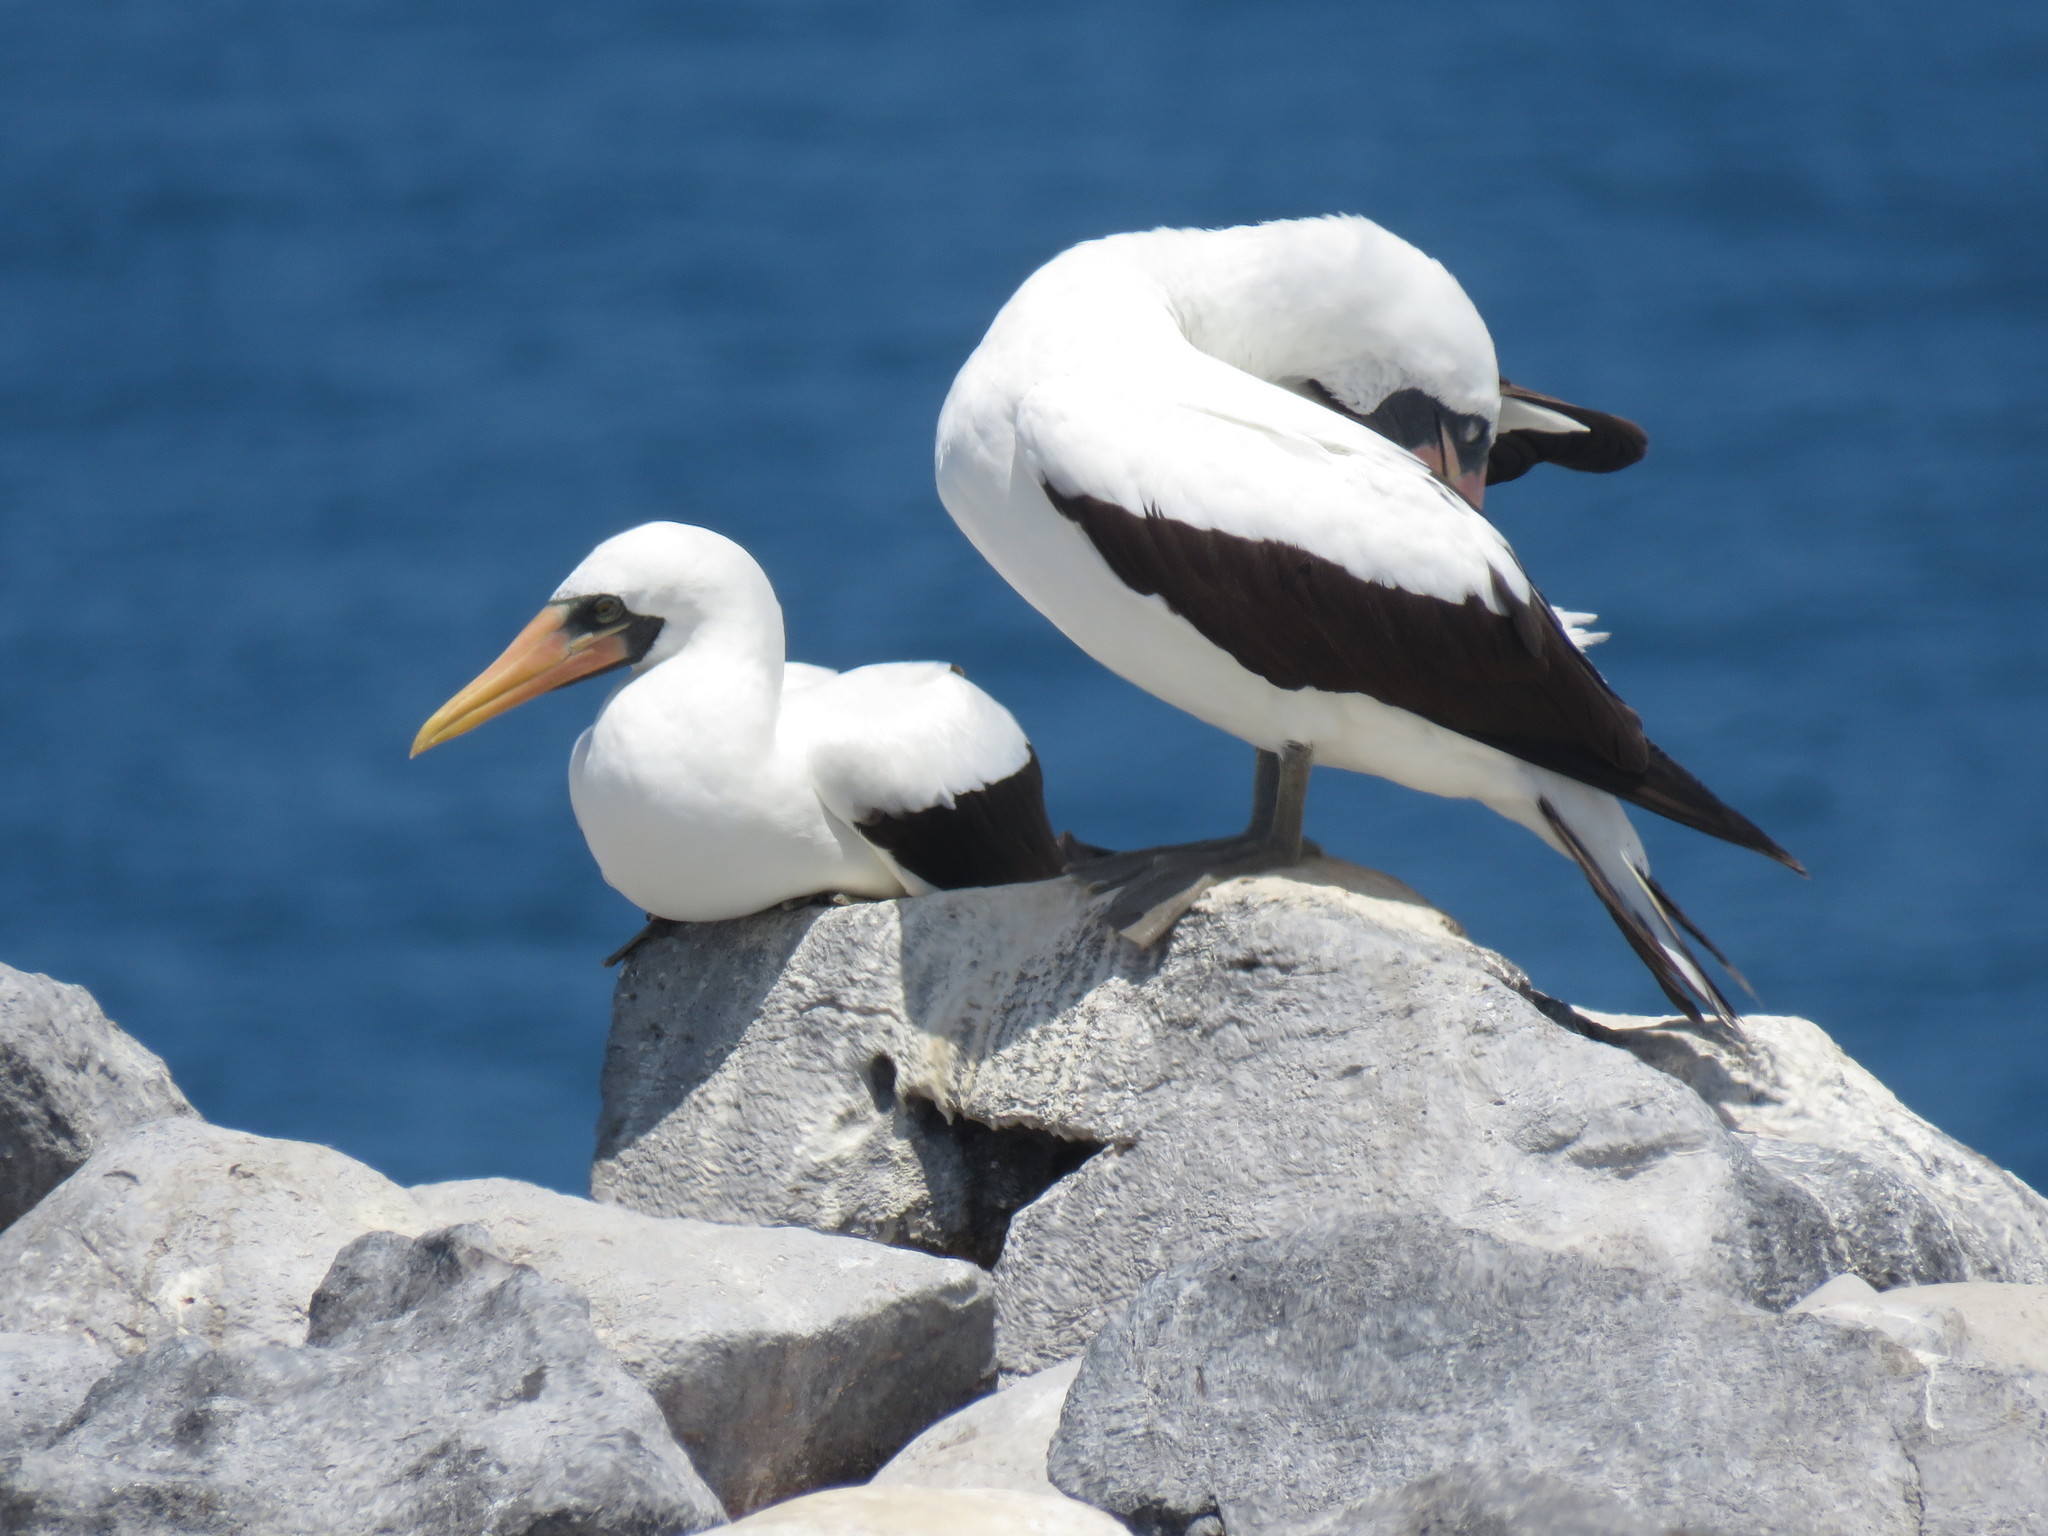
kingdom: Animalia
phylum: Chordata
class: Aves
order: Suliformes
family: Sulidae
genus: Sula
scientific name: Sula granti
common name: Nazca booby
